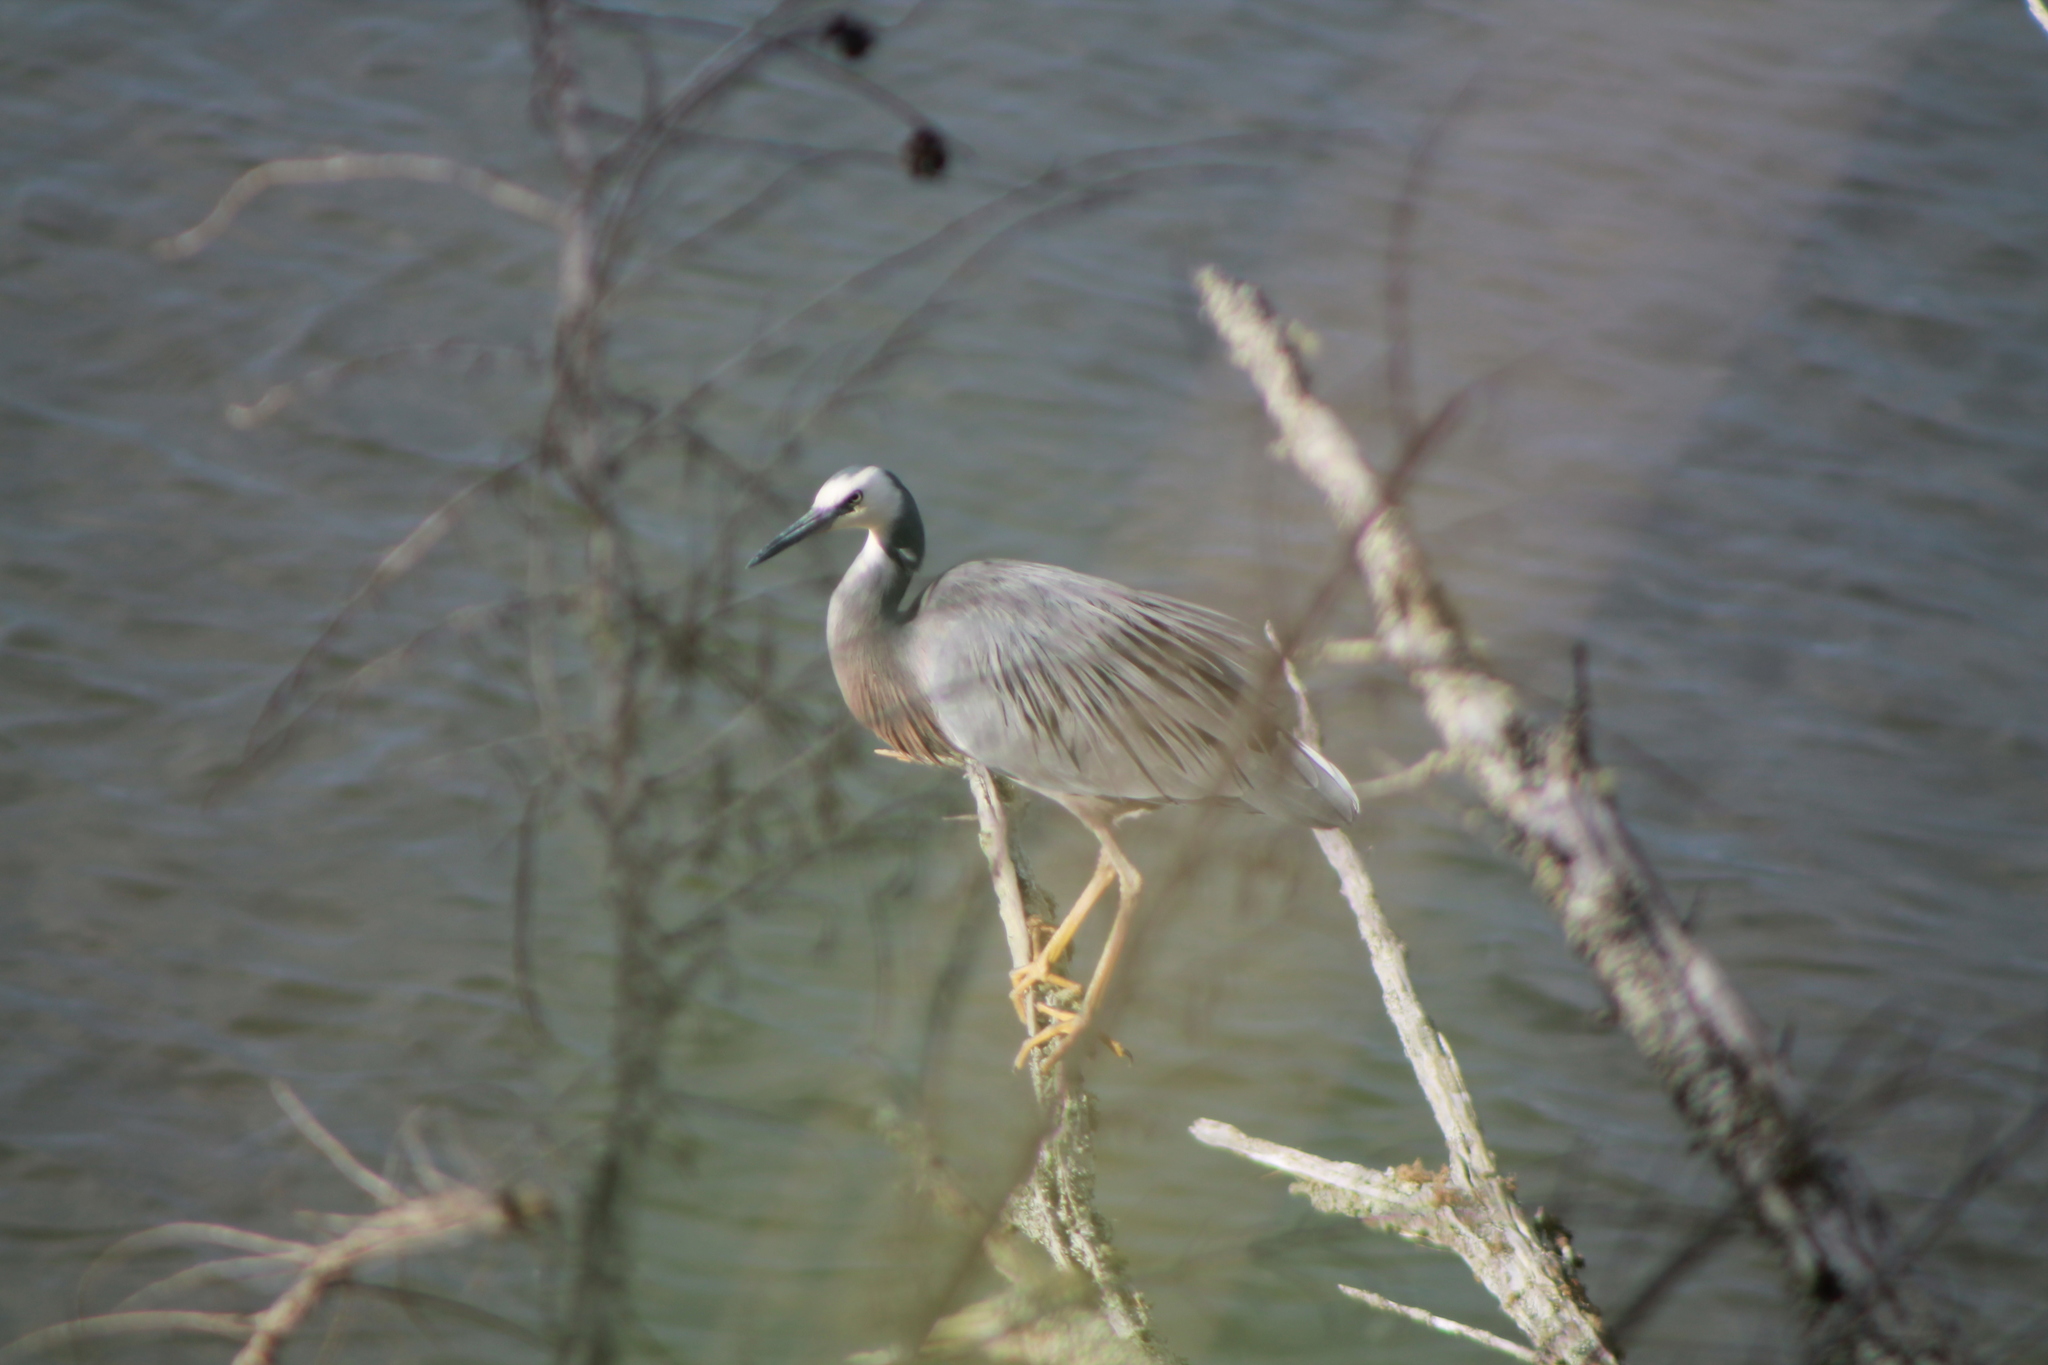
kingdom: Animalia
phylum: Chordata
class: Aves
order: Pelecaniformes
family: Ardeidae
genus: Egretta
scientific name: Egretta novaehollandiae
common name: White-faced heron
